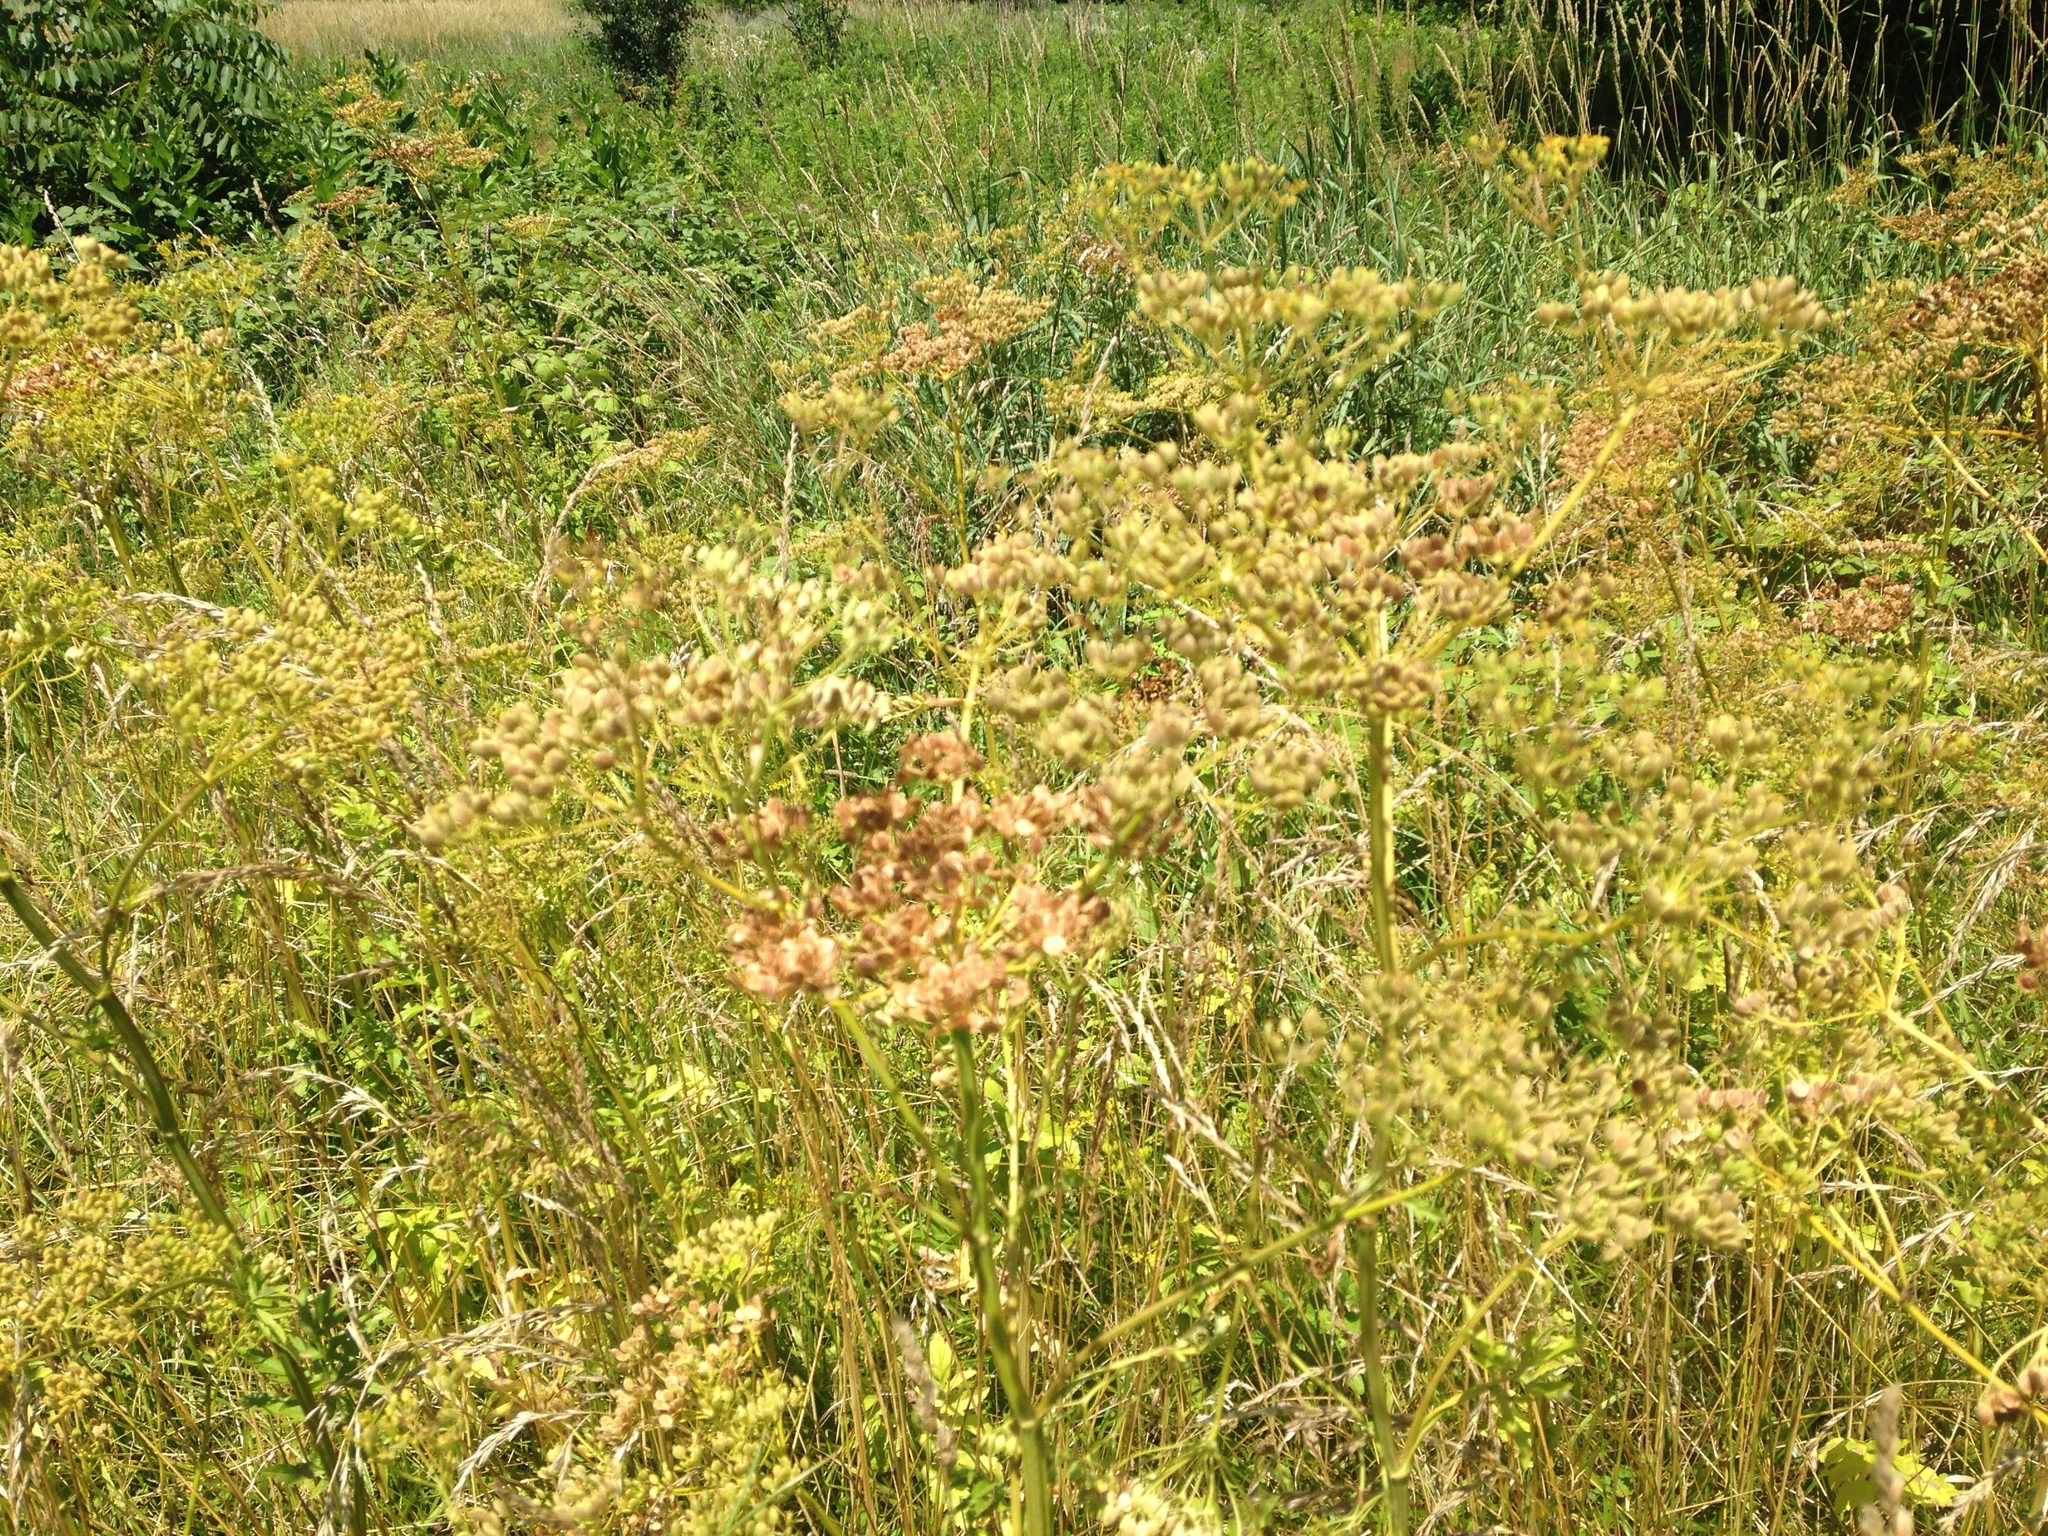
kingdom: Plantae
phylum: Tracheophyta
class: Magnoliopsida
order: Apiales
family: Apiaceae
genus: Pastinaca
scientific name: Pastinaca sativa
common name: Wild parsnip
